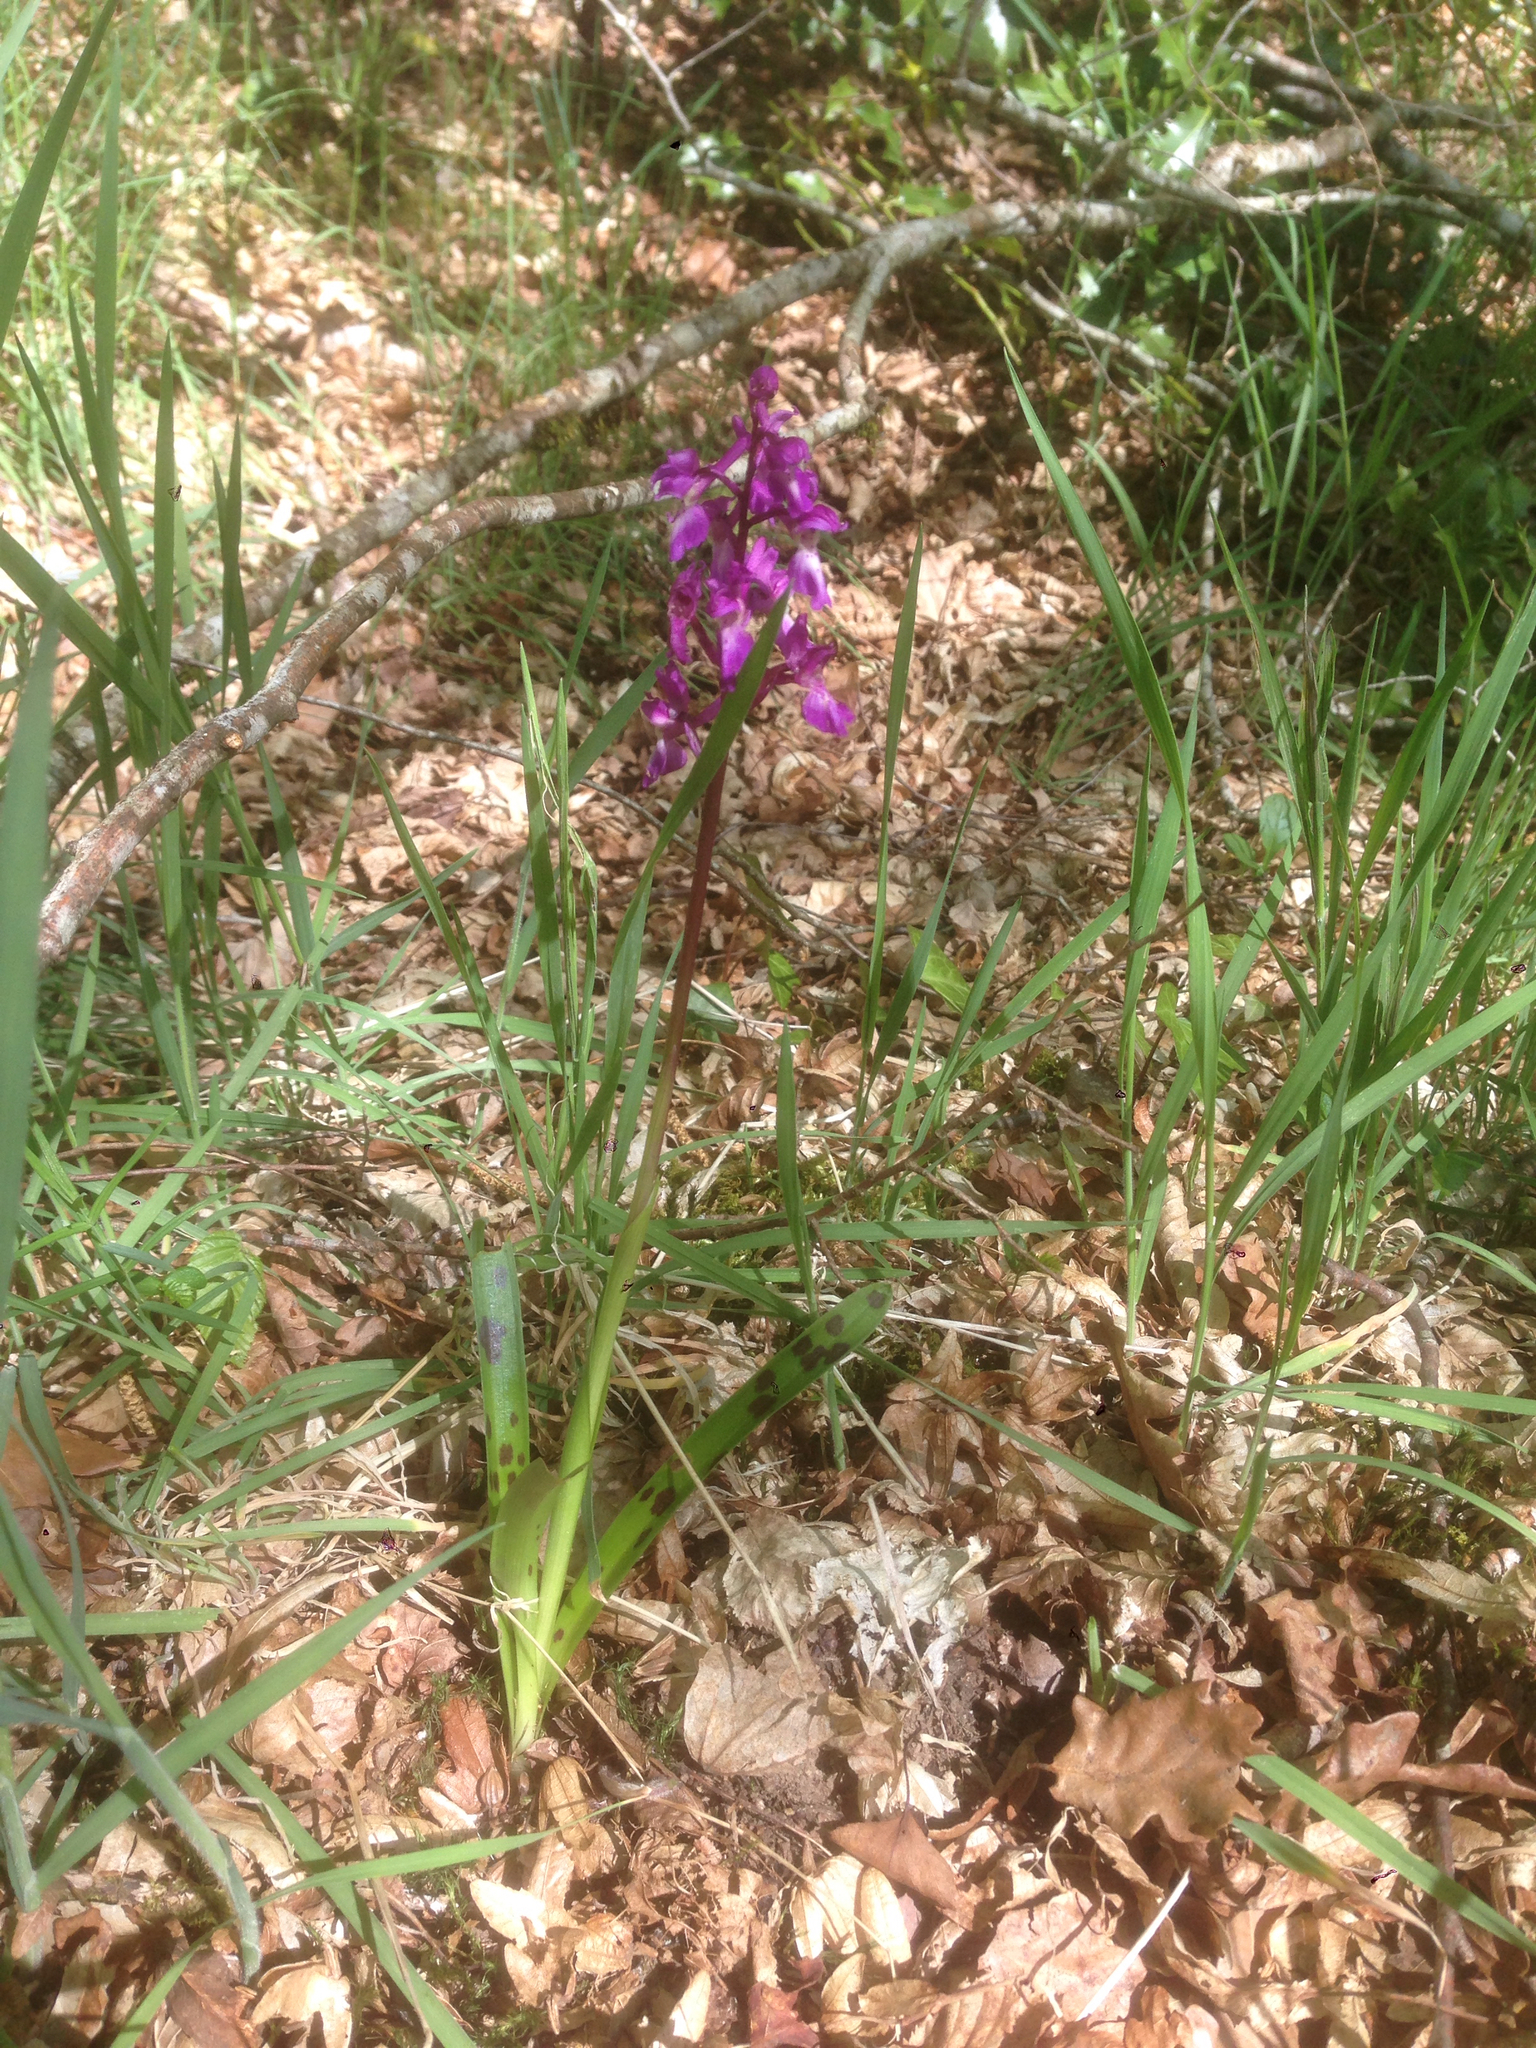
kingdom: Plantae
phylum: Tracheophyta
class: Liliopsida
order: Asparagales
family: Orchidaceae
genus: Orchis
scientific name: Orchis mascula
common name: Early-purple orchid
